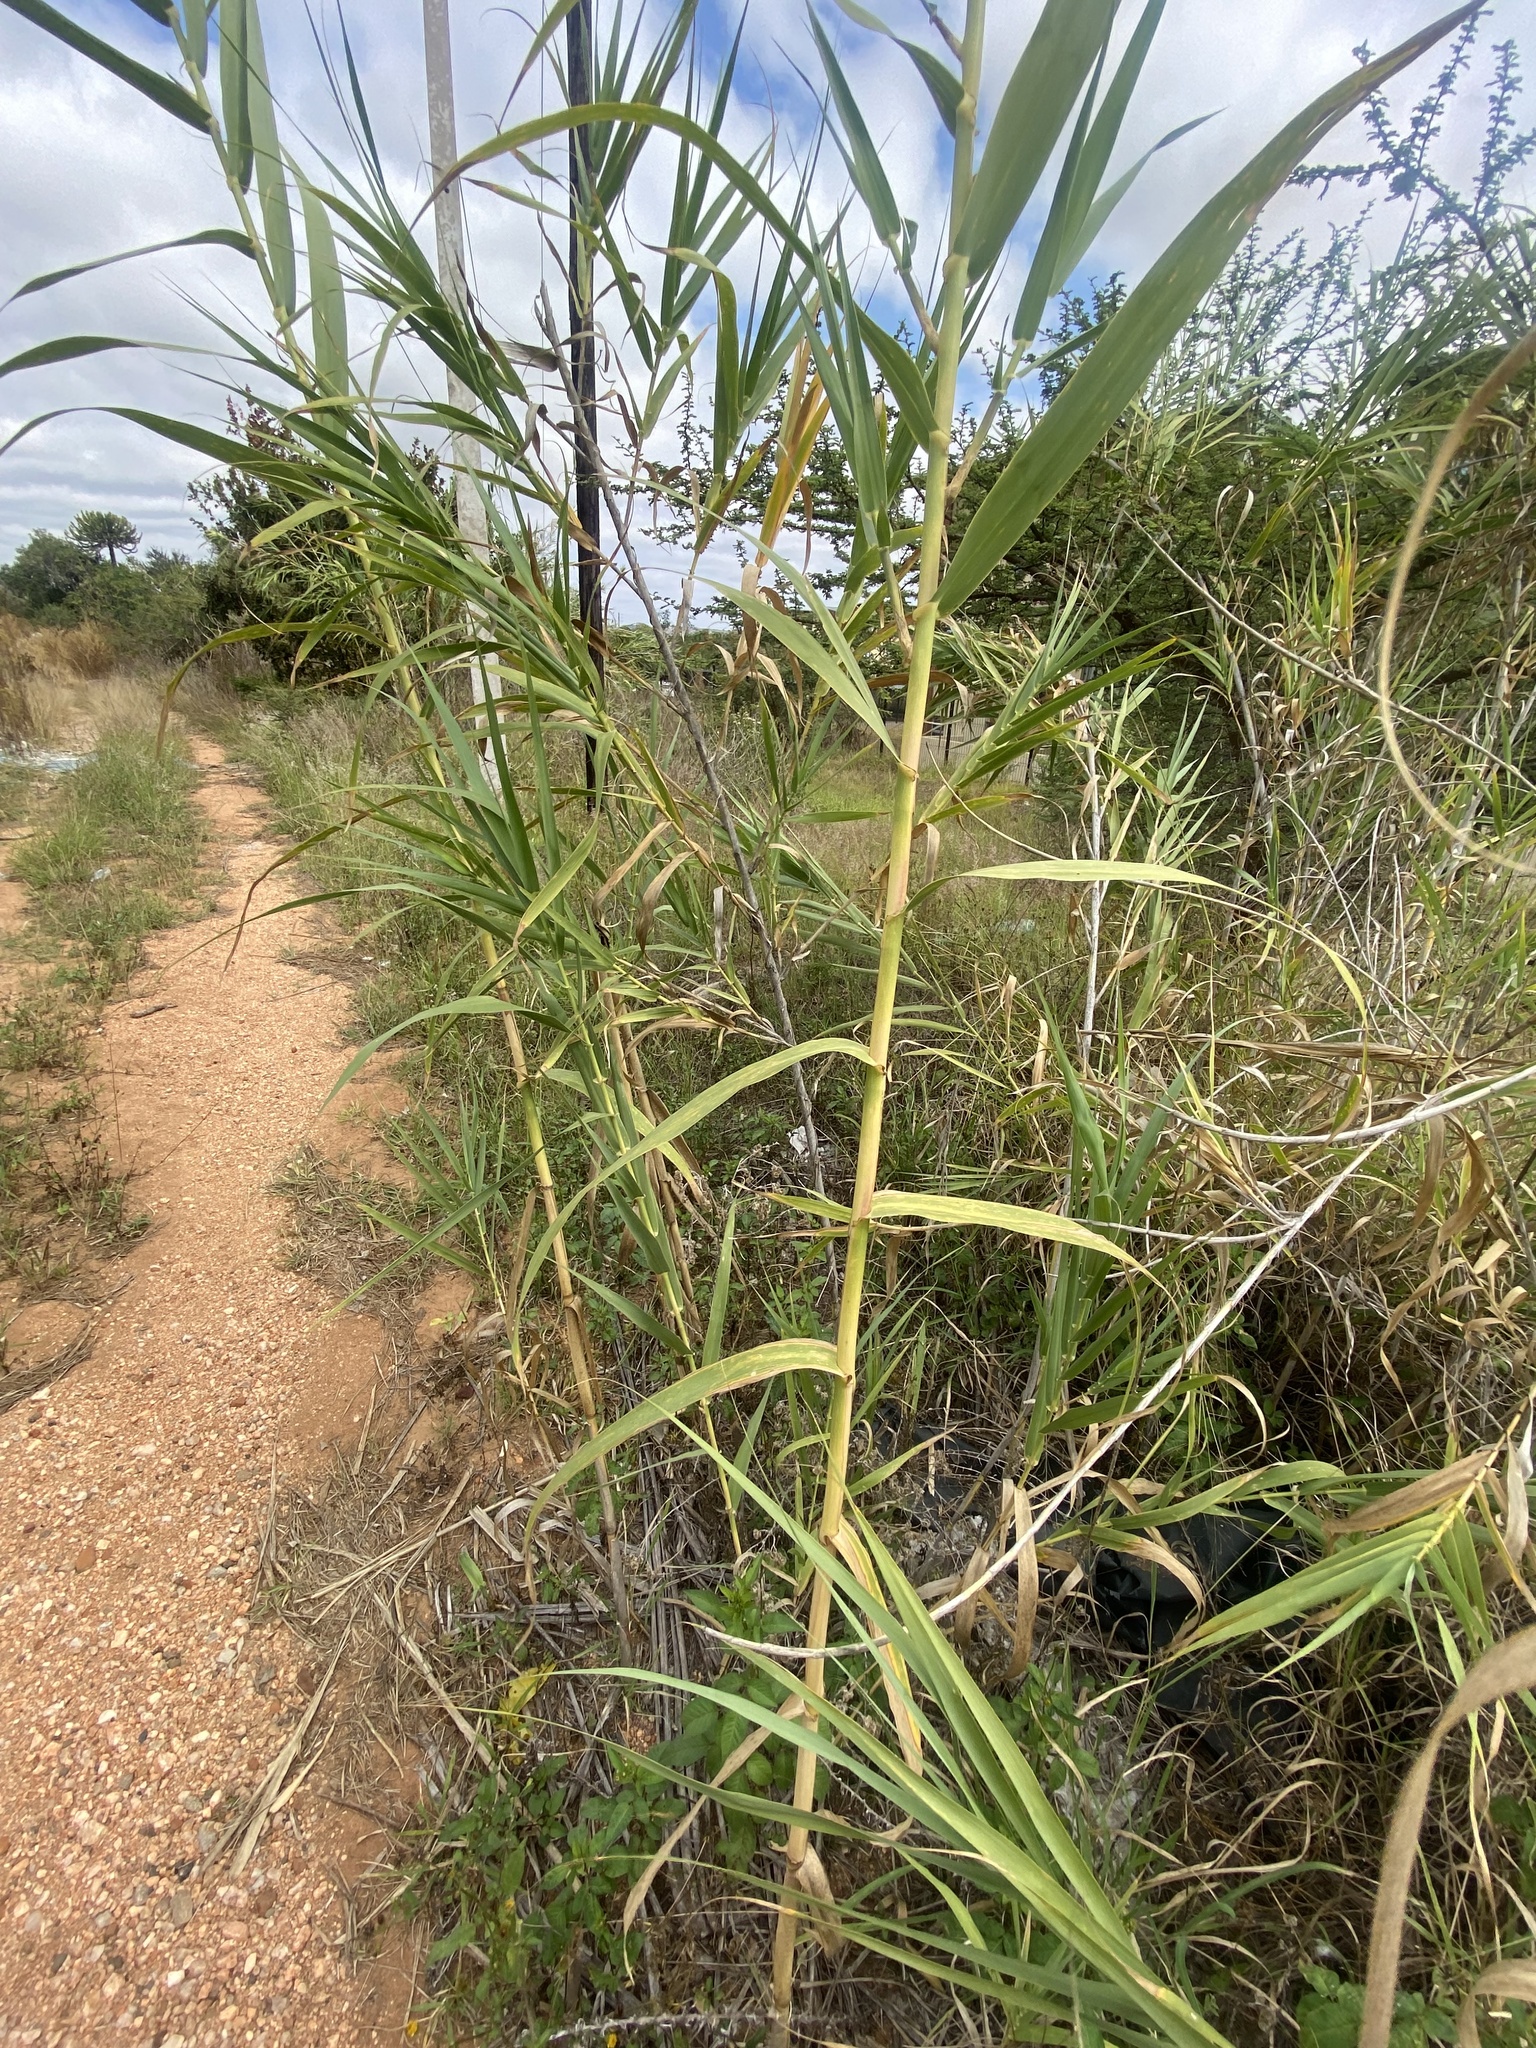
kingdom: Plantae
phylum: Tracheophyta
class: Liliopsida
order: Poales
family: Poaceae
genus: Arundo
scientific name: Arundo donax
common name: Giant reed
